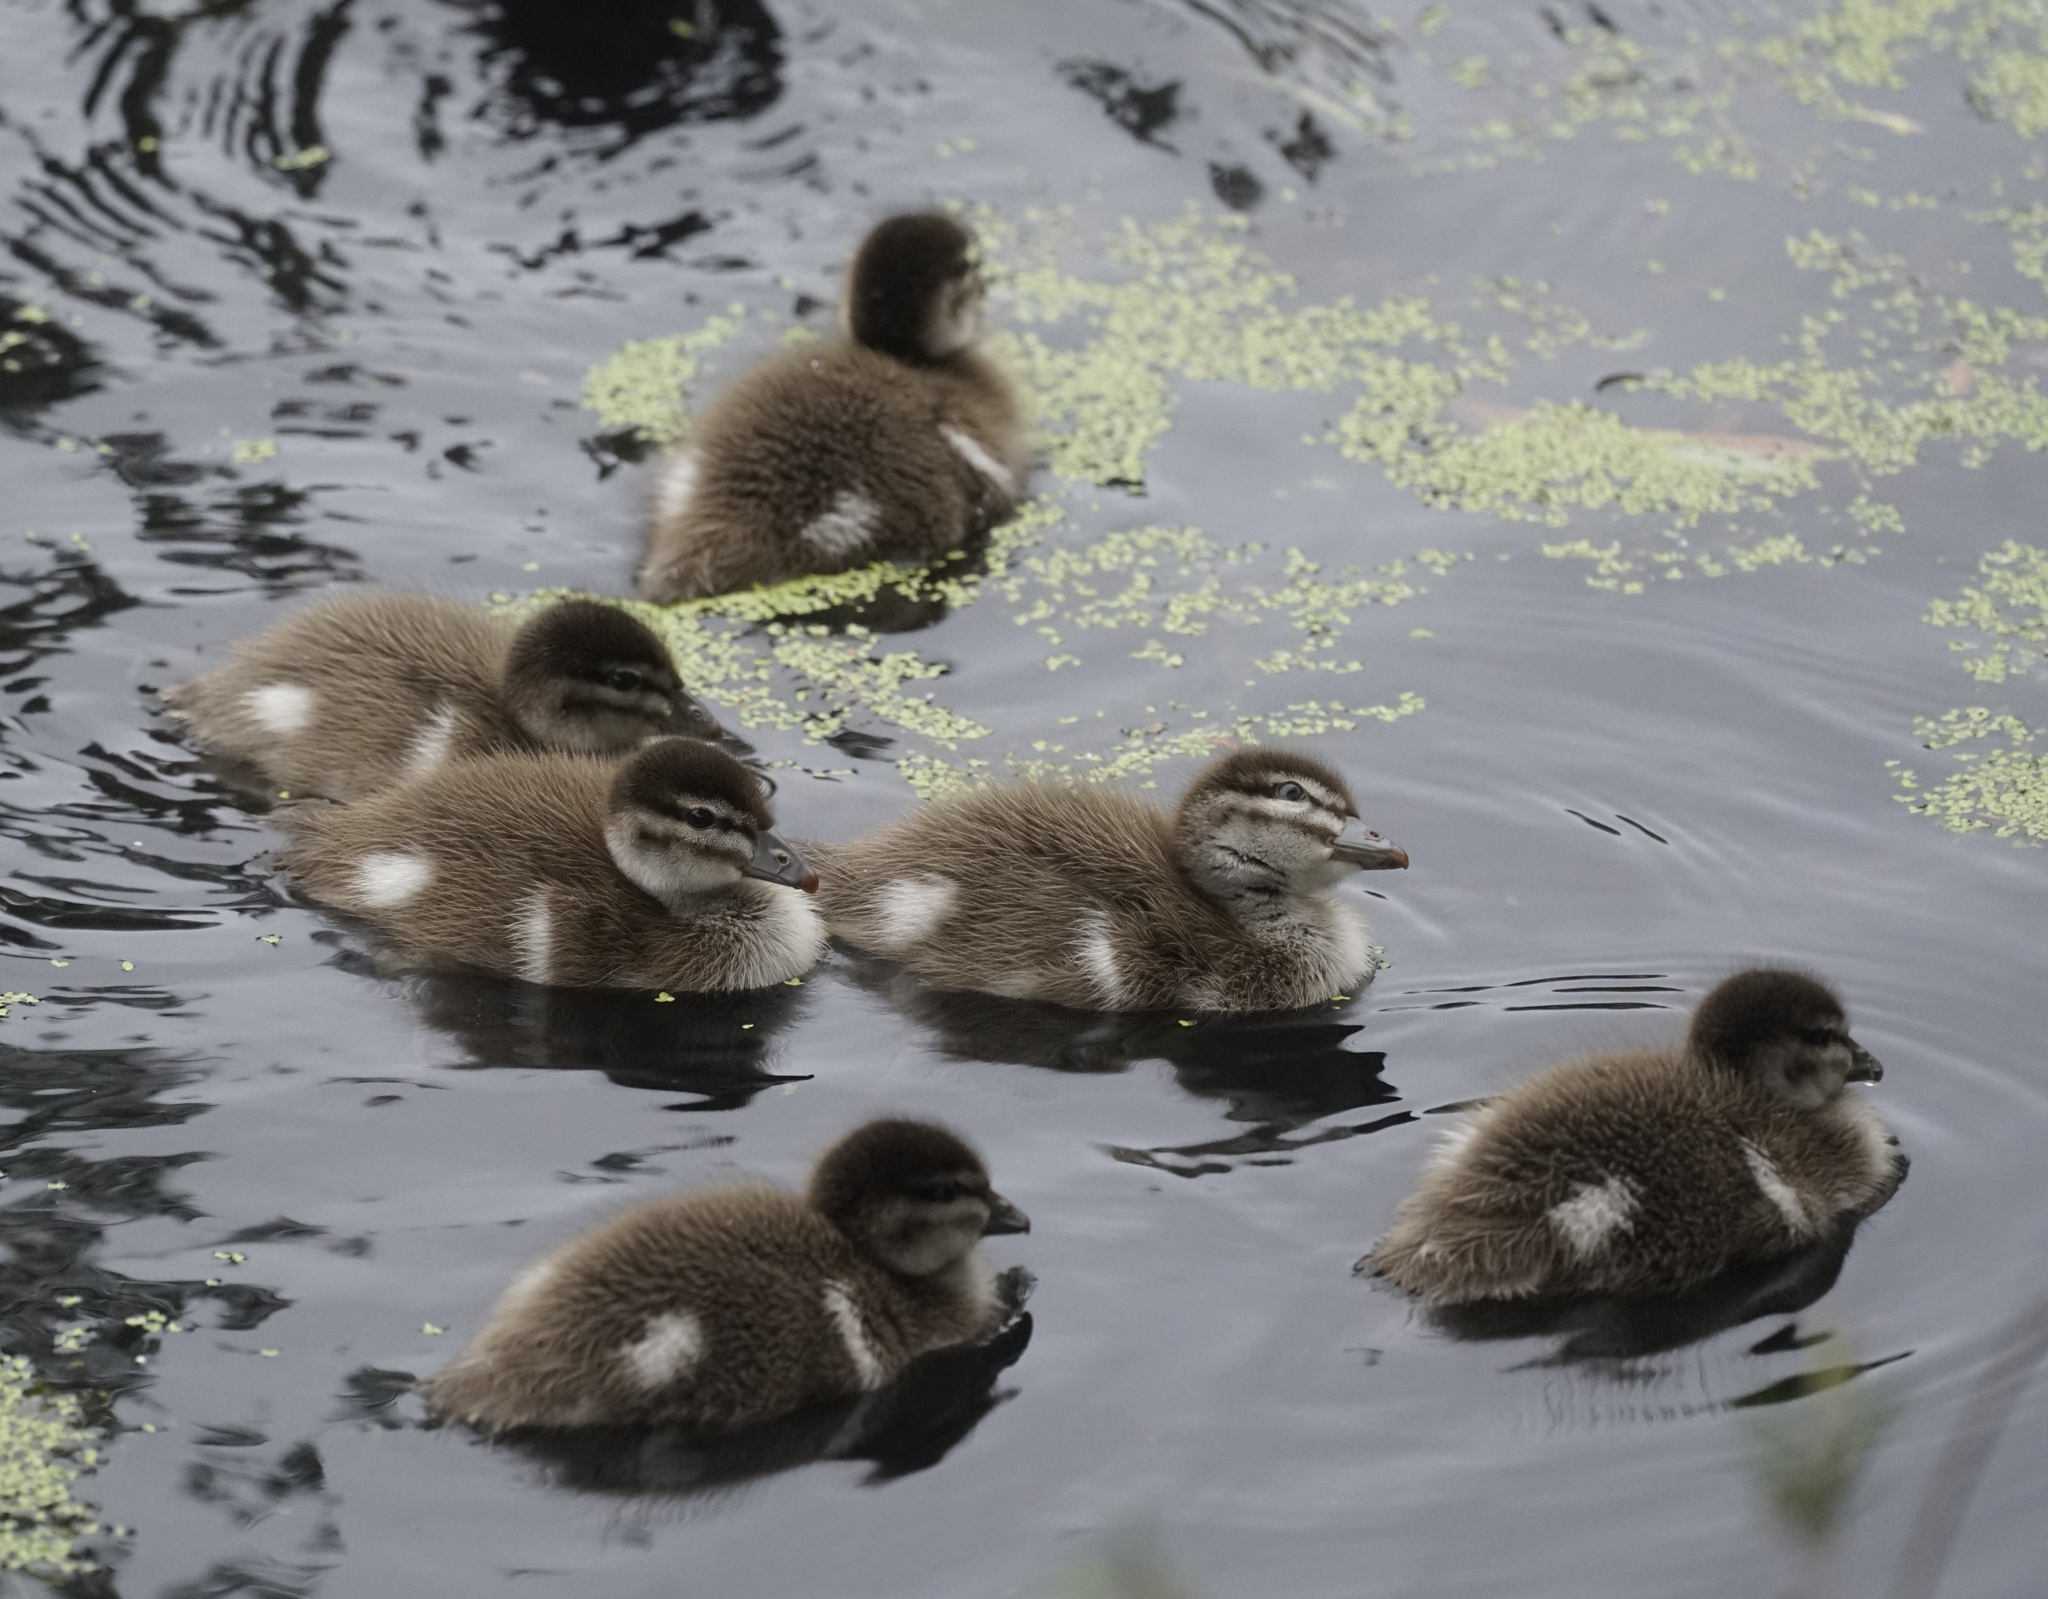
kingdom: Animalia
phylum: Chordata
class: Aves
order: Anseriformes
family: Anatidae
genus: Chenonetta
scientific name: Chenonetta jubata
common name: Maned duck
